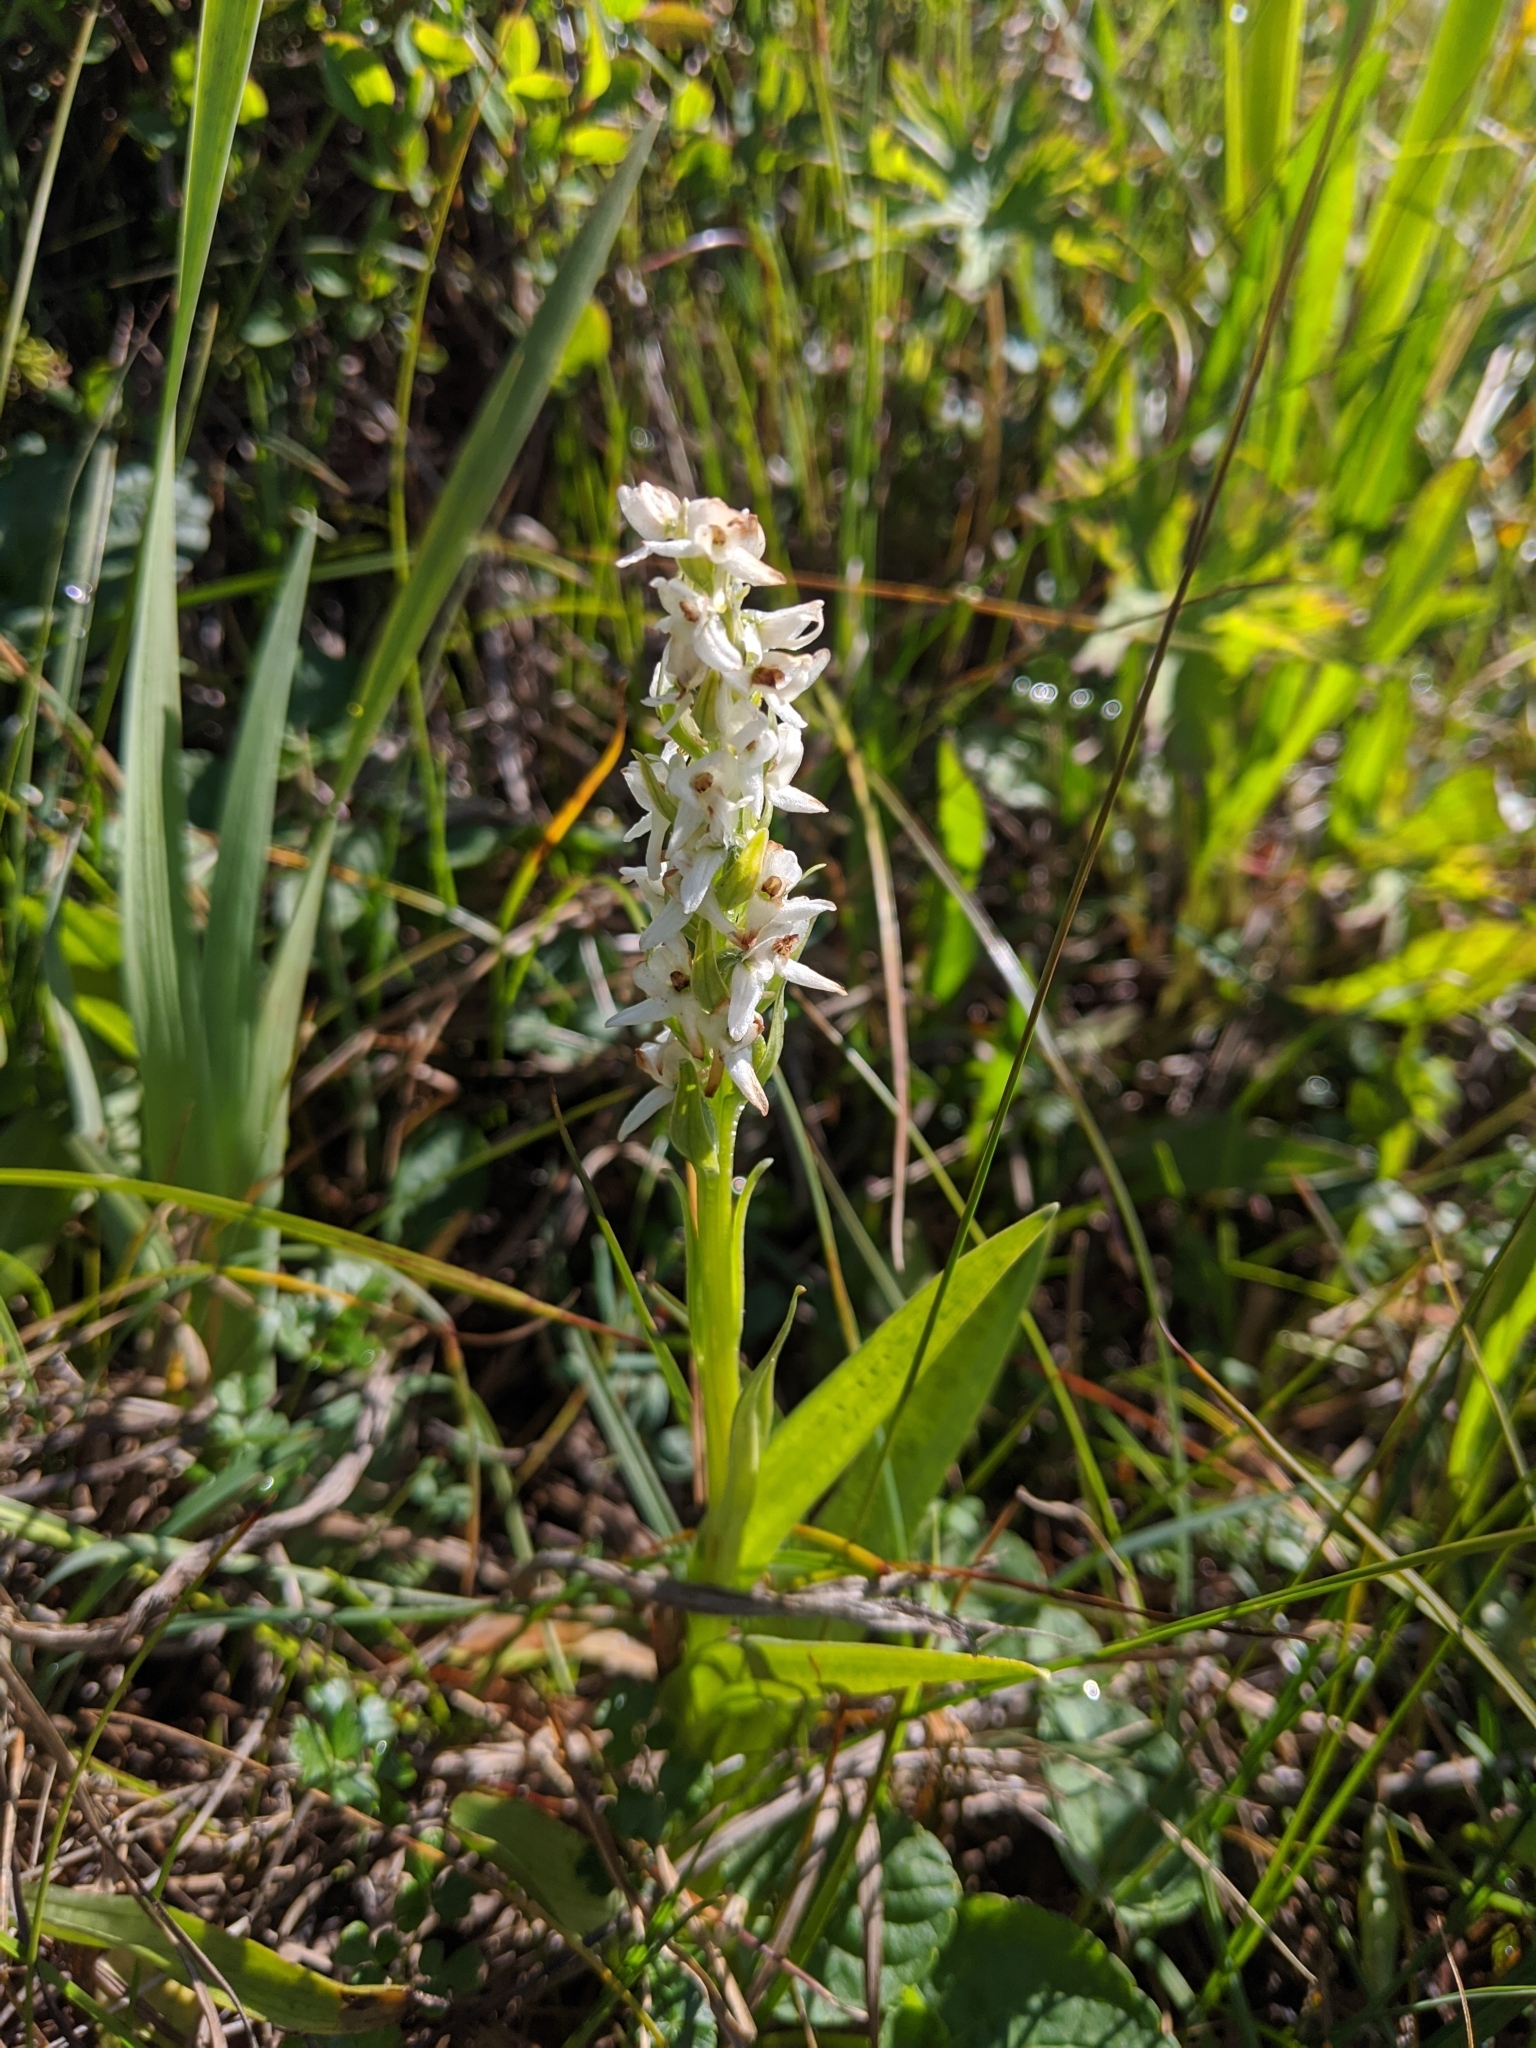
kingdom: Plantae
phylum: Tracheophyta
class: Liliopsida
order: Asparagales
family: Orchidaceae
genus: Platanthera
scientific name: Platanthera dilatata
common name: Bog candles
